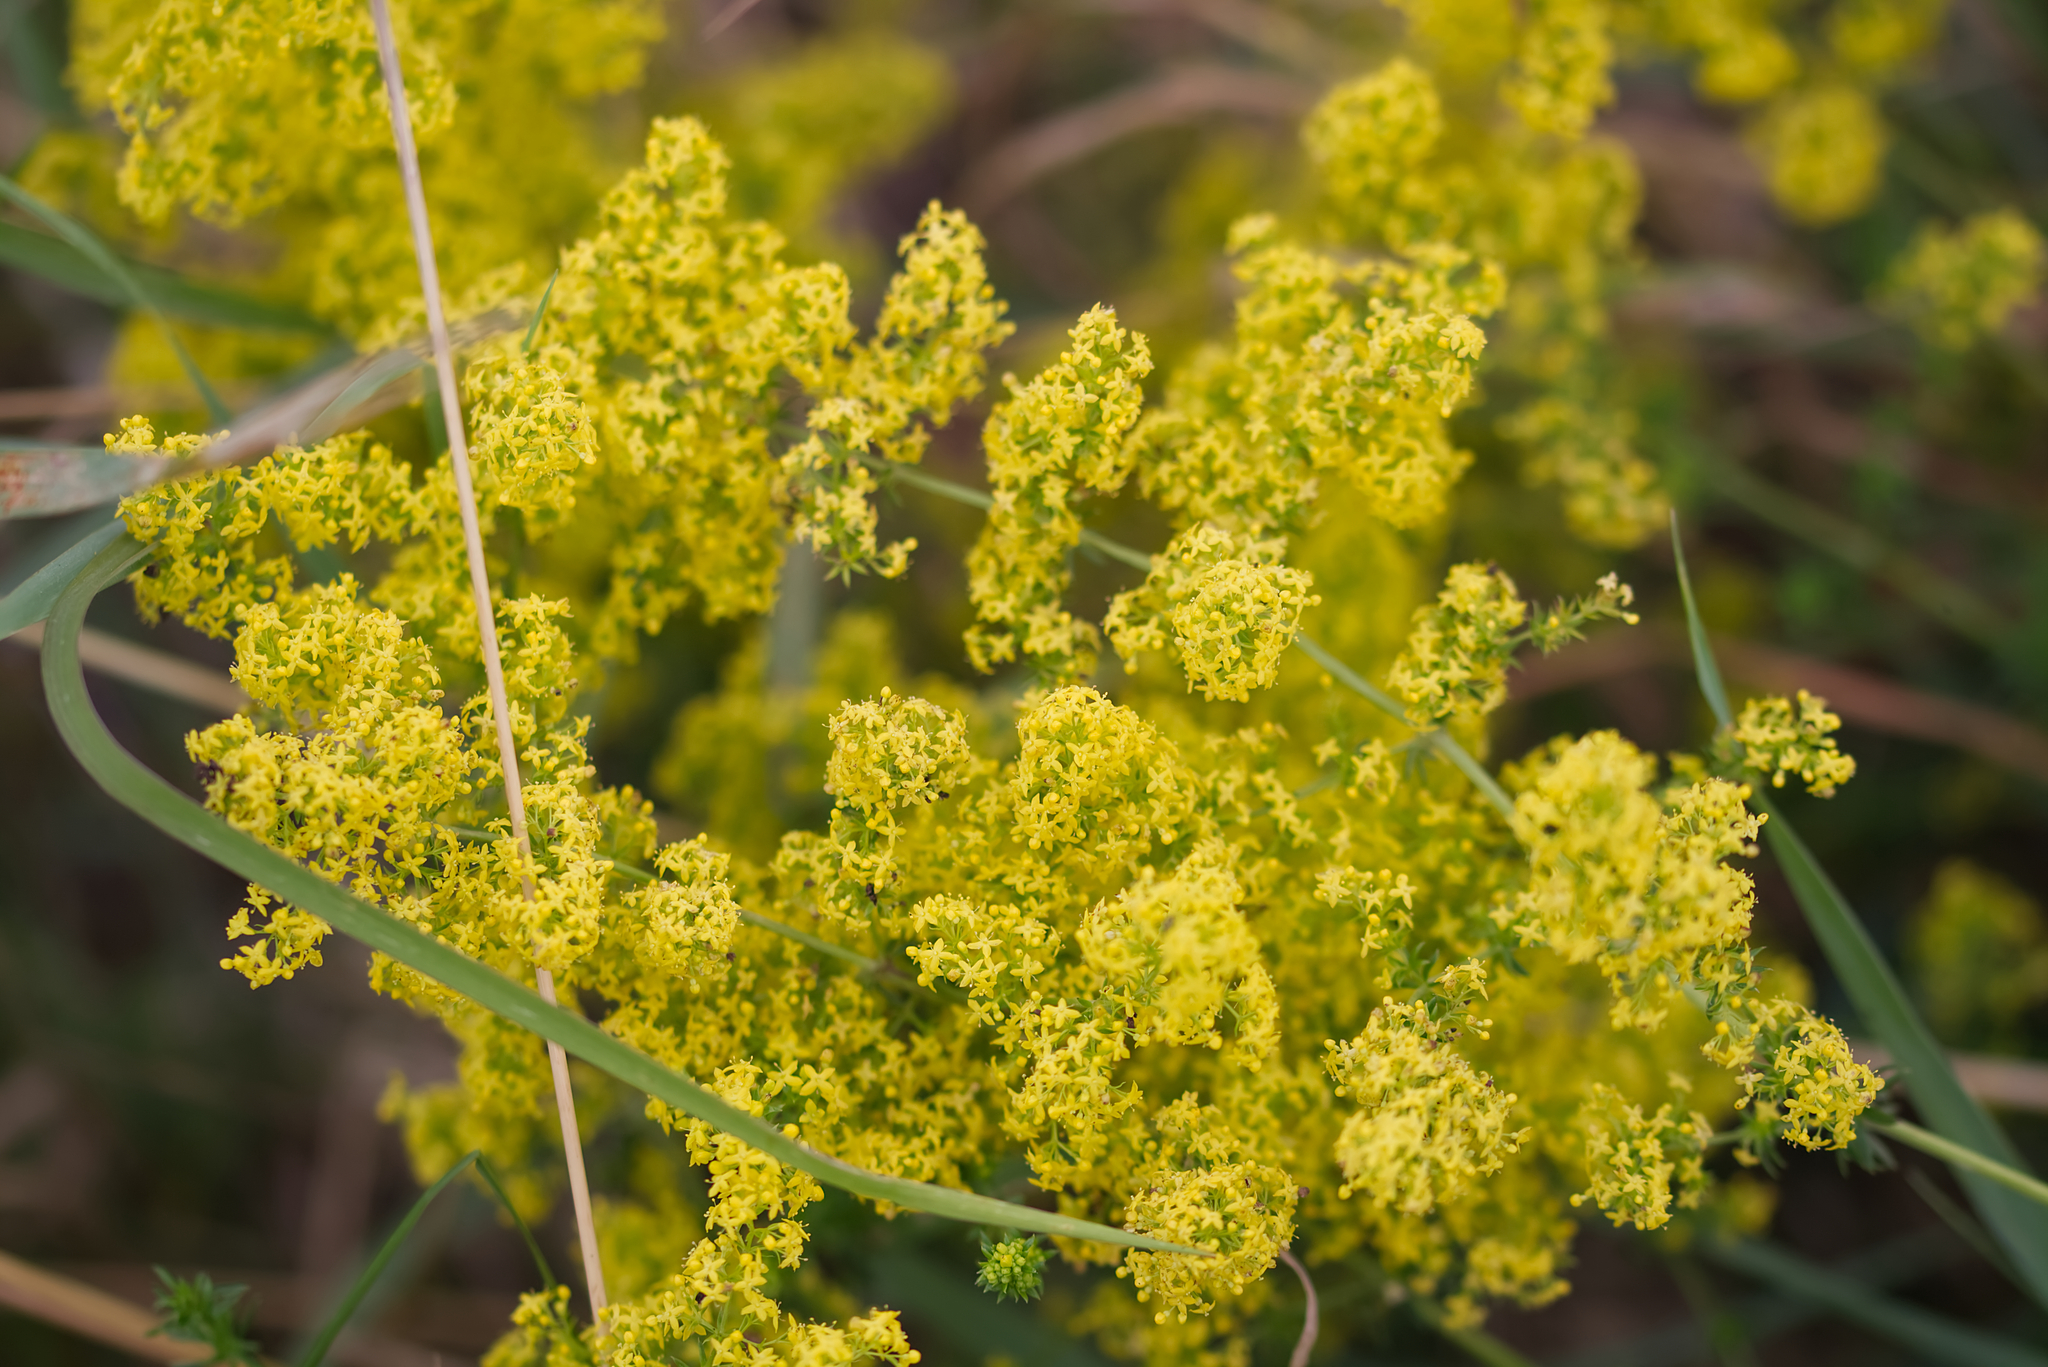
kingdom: Plantae
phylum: Tracheophyta
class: Magnoliopsida
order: Gentianales
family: Rubiaceae
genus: Galium
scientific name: Galium verum
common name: Lady's bedstraw
